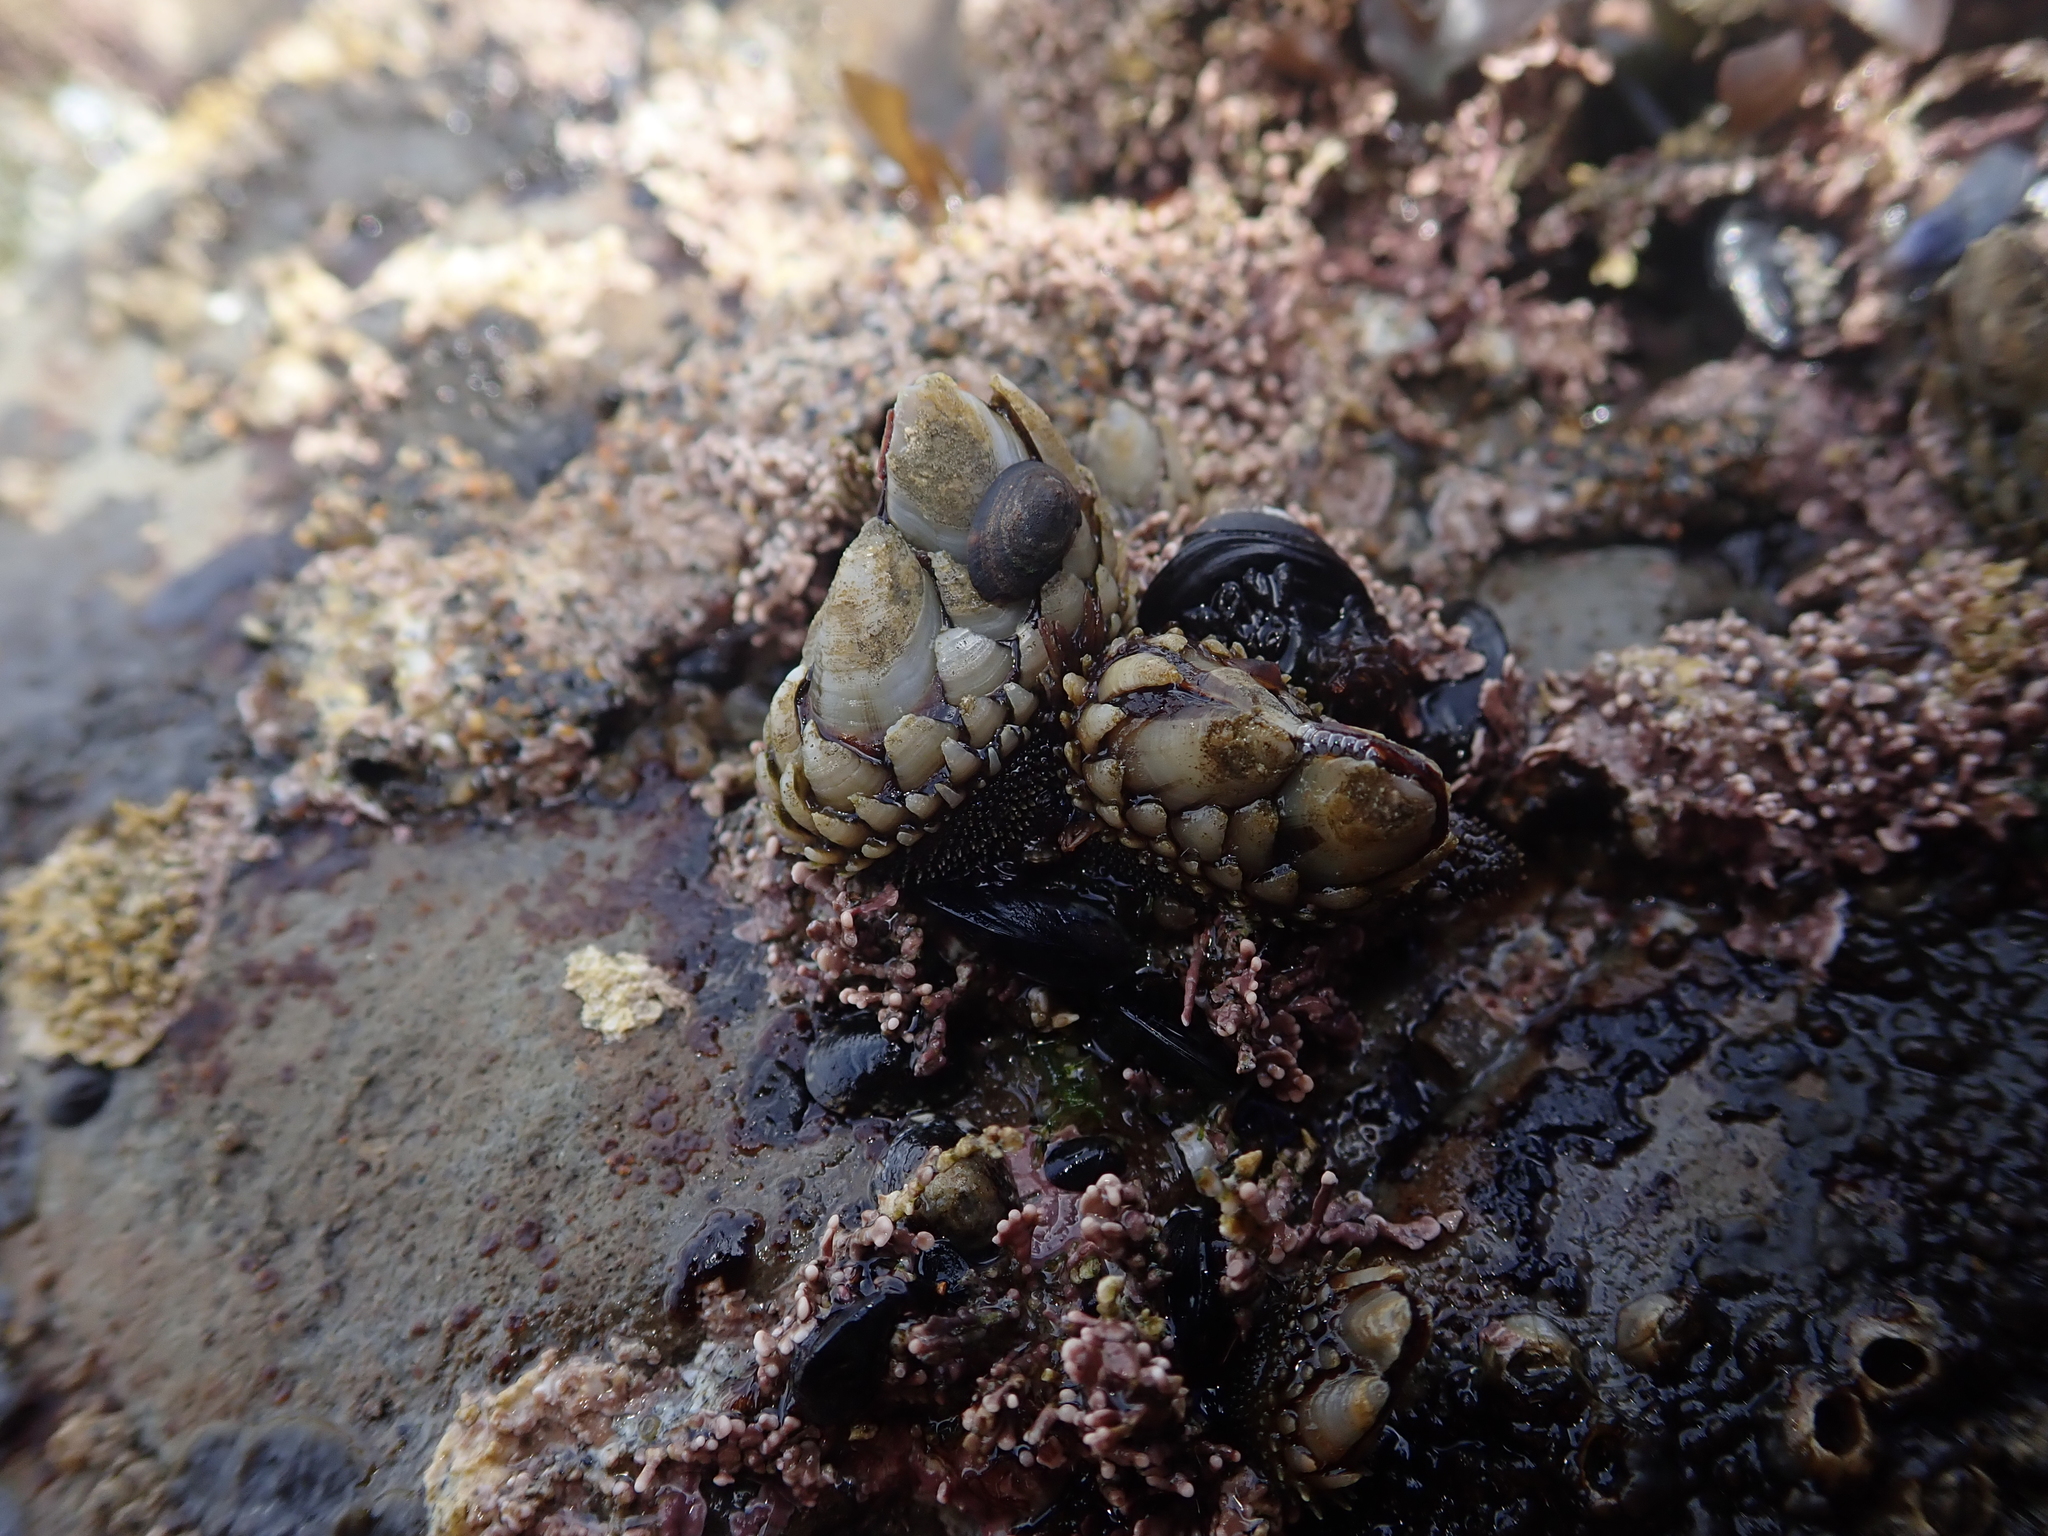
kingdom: Animalia
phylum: Arthropoda
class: Maxillopoda
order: Pedunculata
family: Pollicipedidae
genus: Pollicipes
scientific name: Pollicipes polymerus
